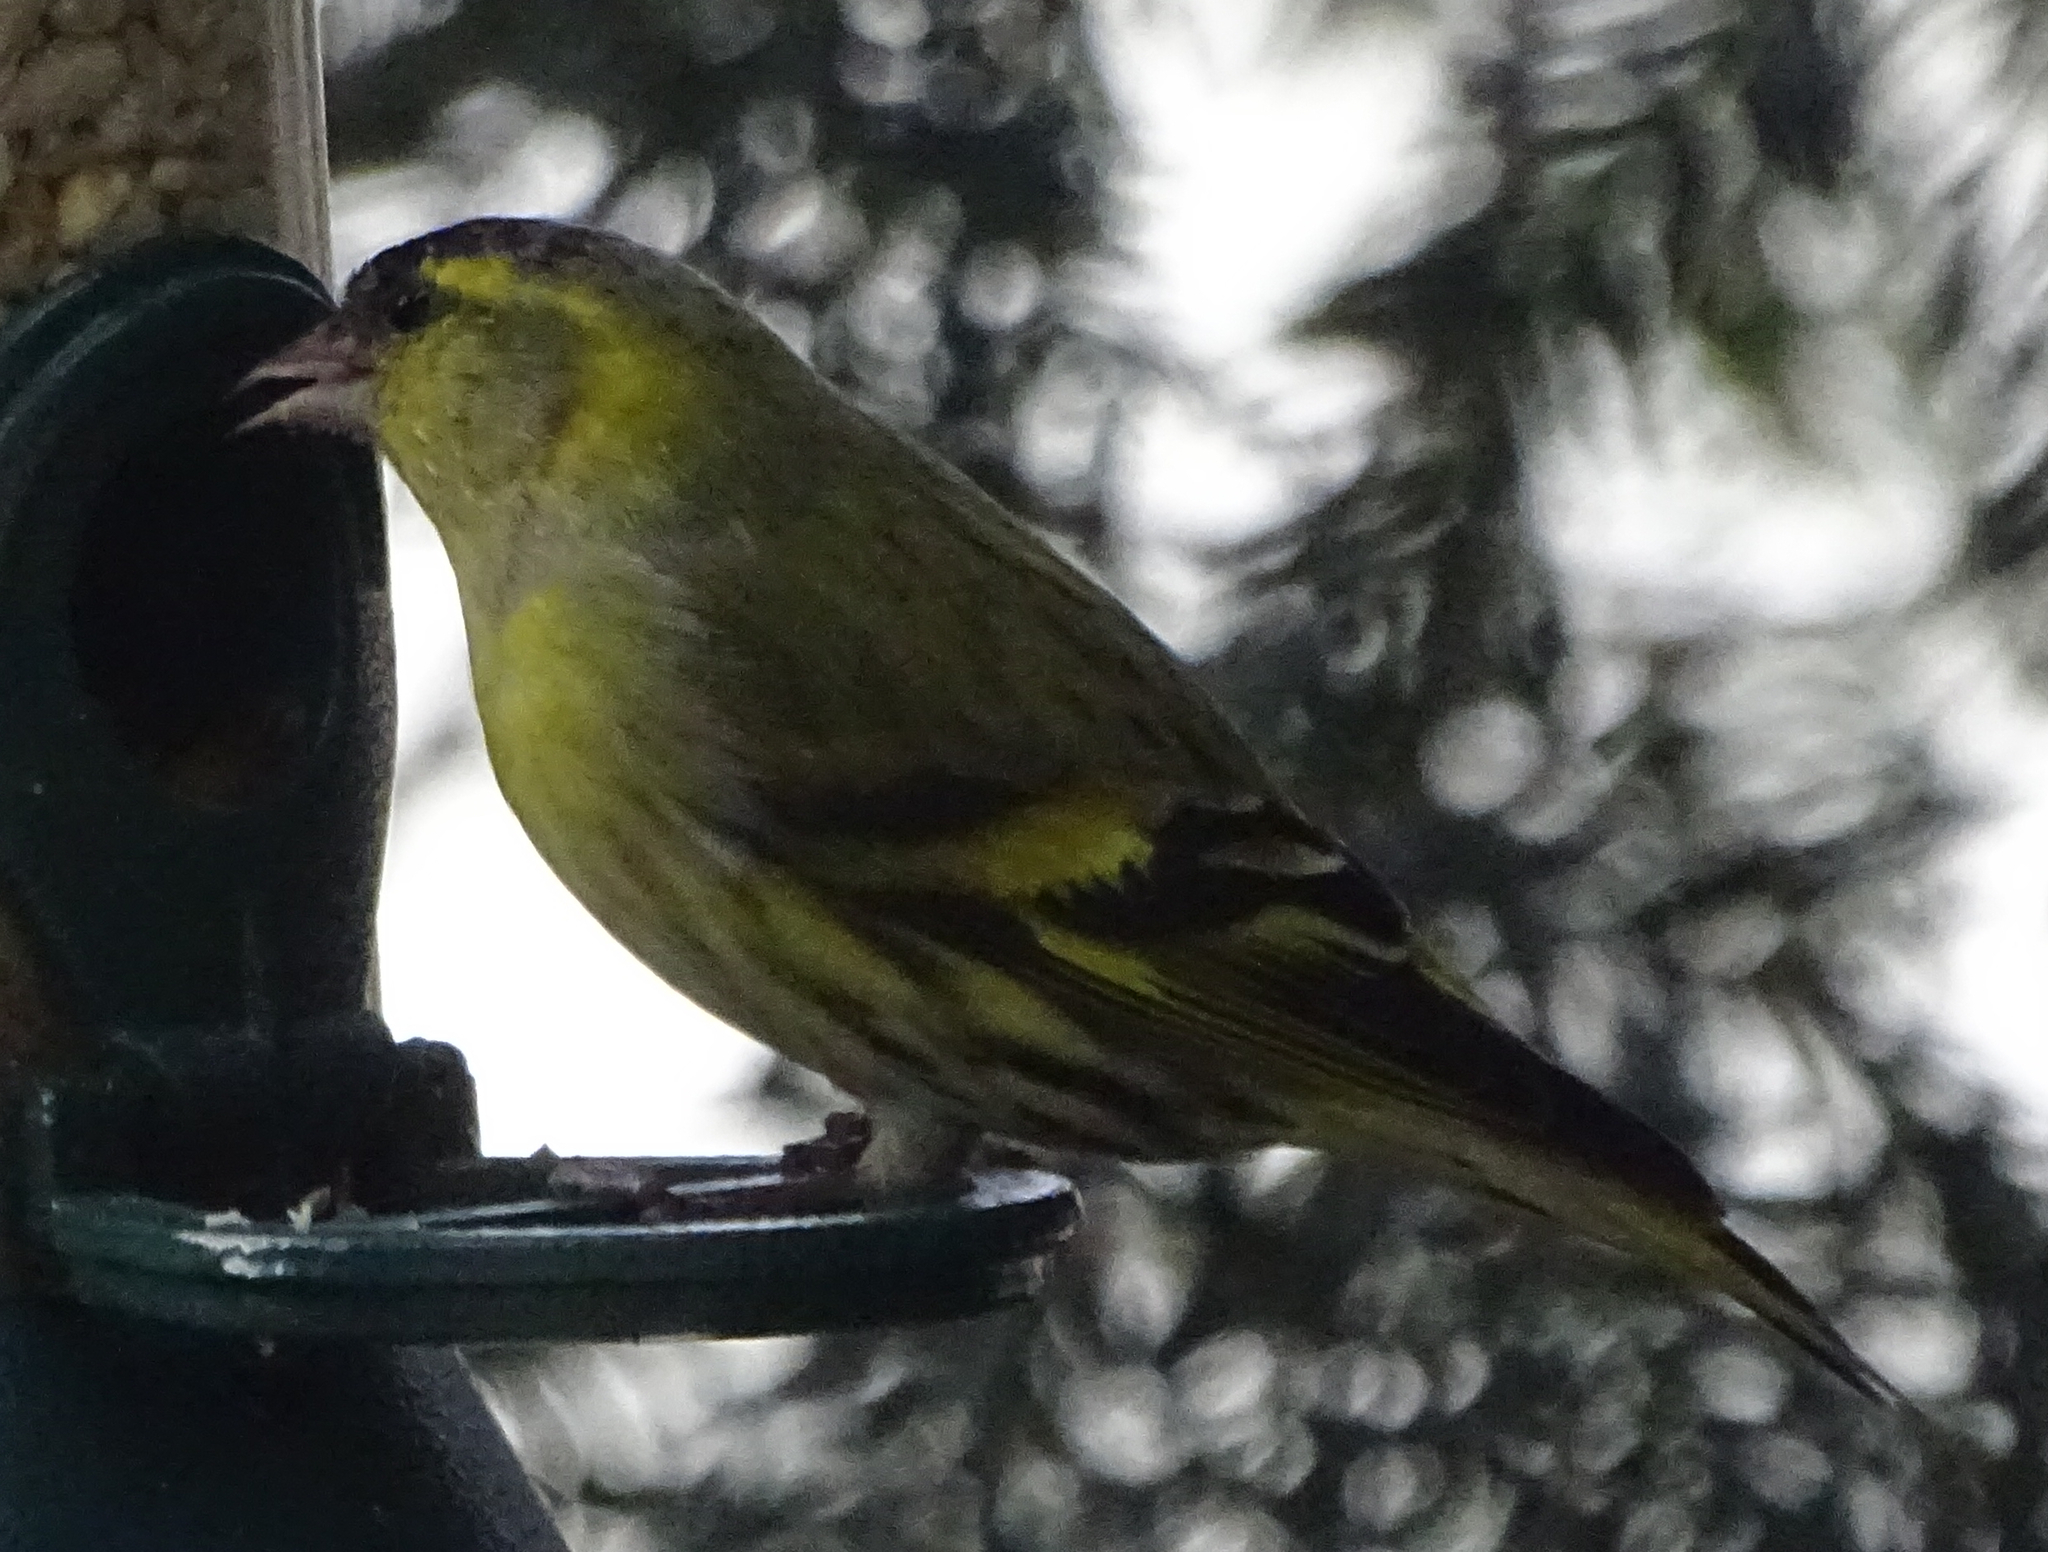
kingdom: Animalia
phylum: Chordata
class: Aves
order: Passeriformes
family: Fringillidae
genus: Spinus
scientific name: Spinus spinus
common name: Eurasian siskin
